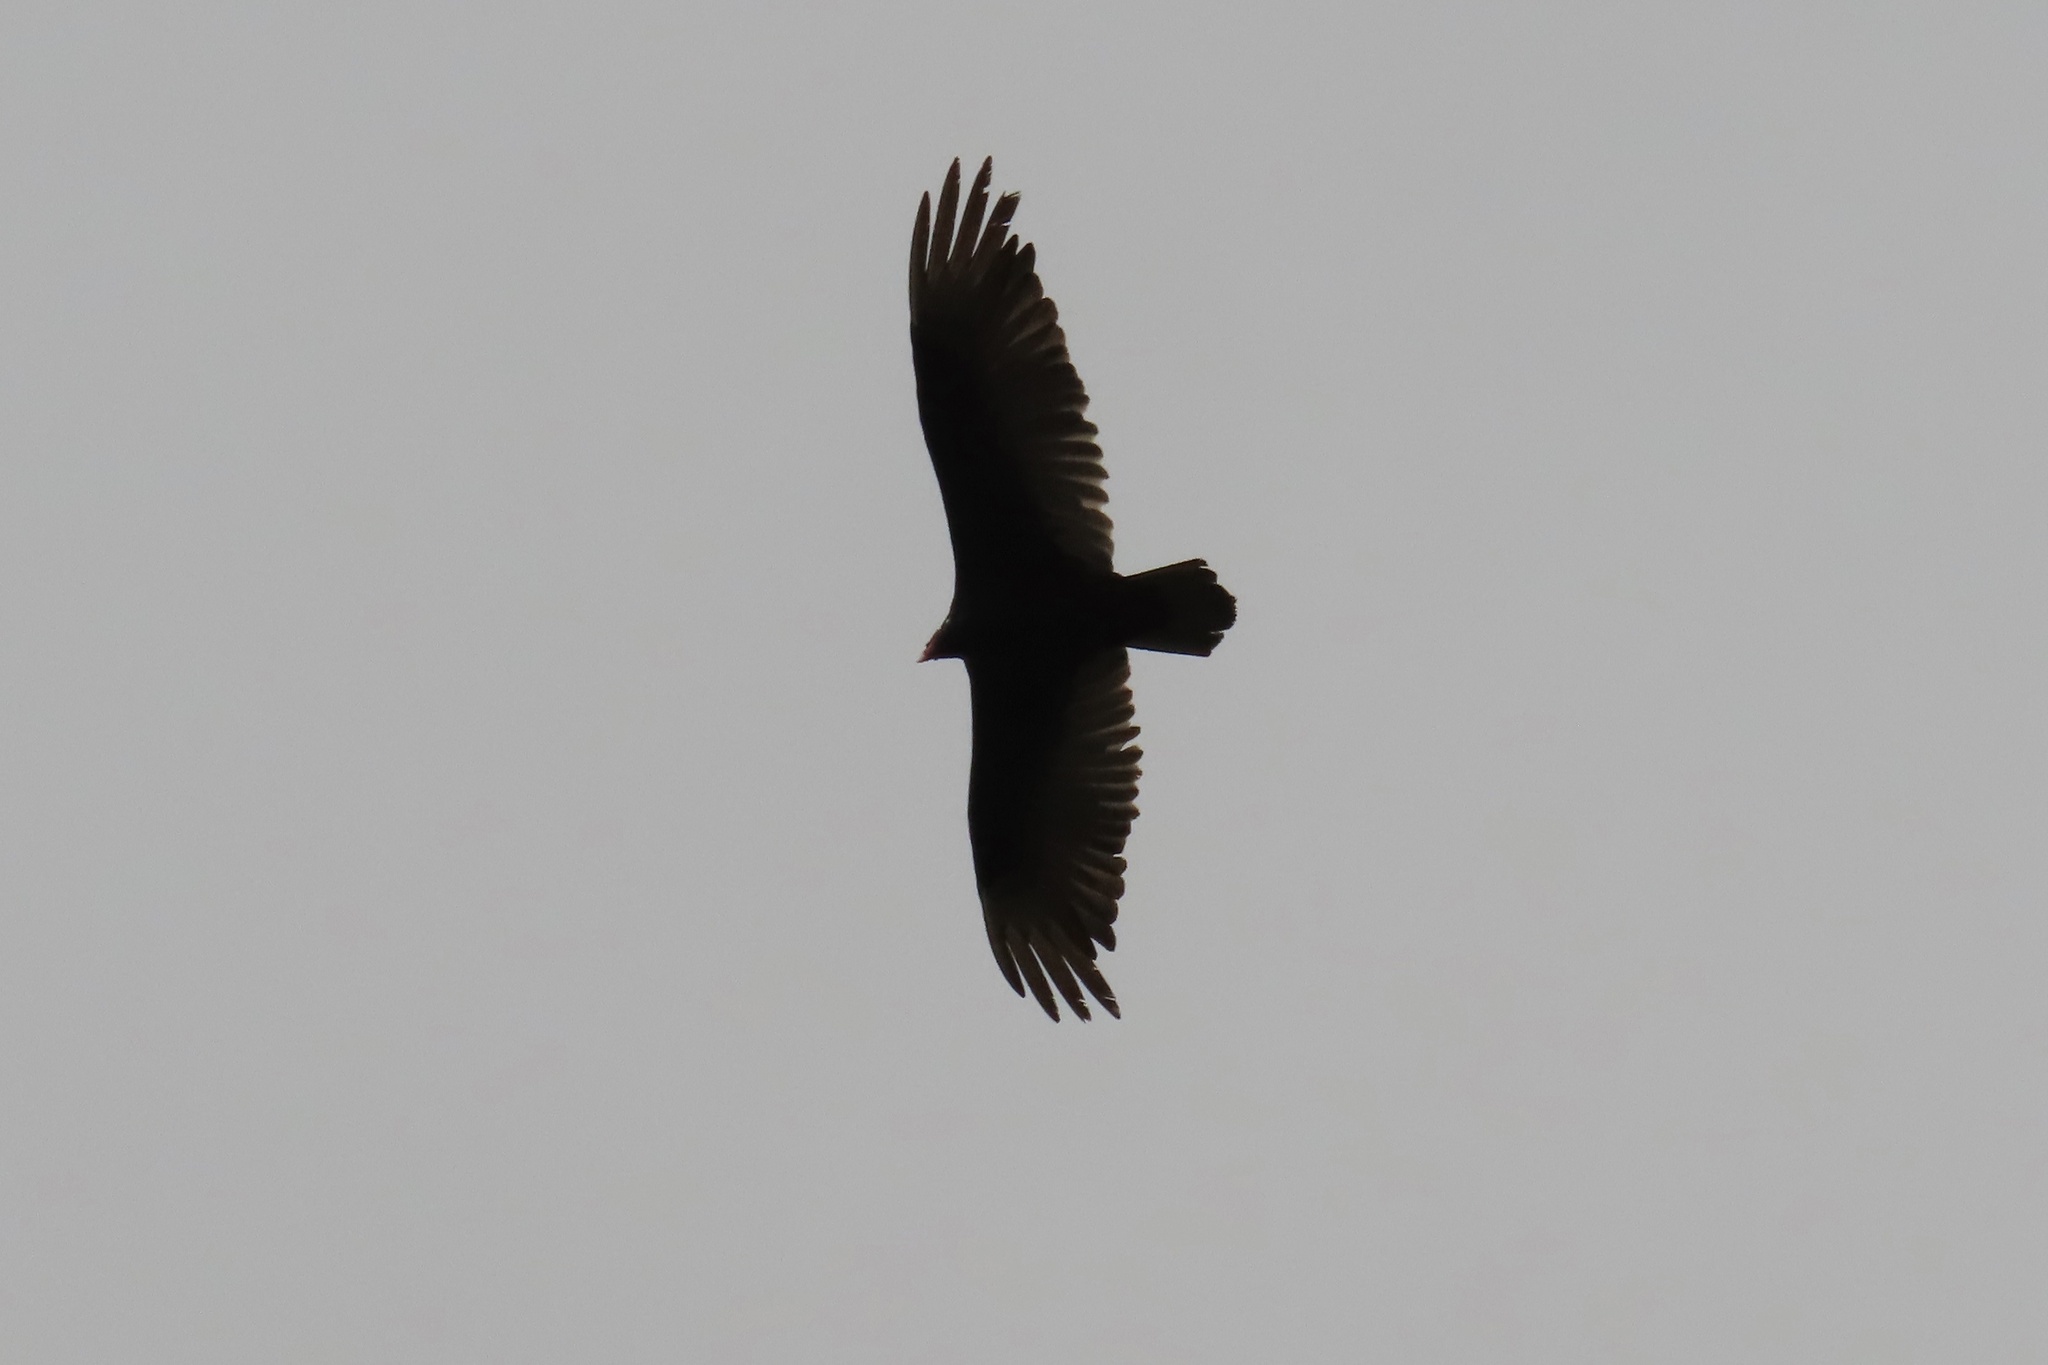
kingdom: Animalia
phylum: Chordata
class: Aves
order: Accipitriformes
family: Cathartidae
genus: Cathartes
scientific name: Cathartes aura
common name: Turkey vulture
